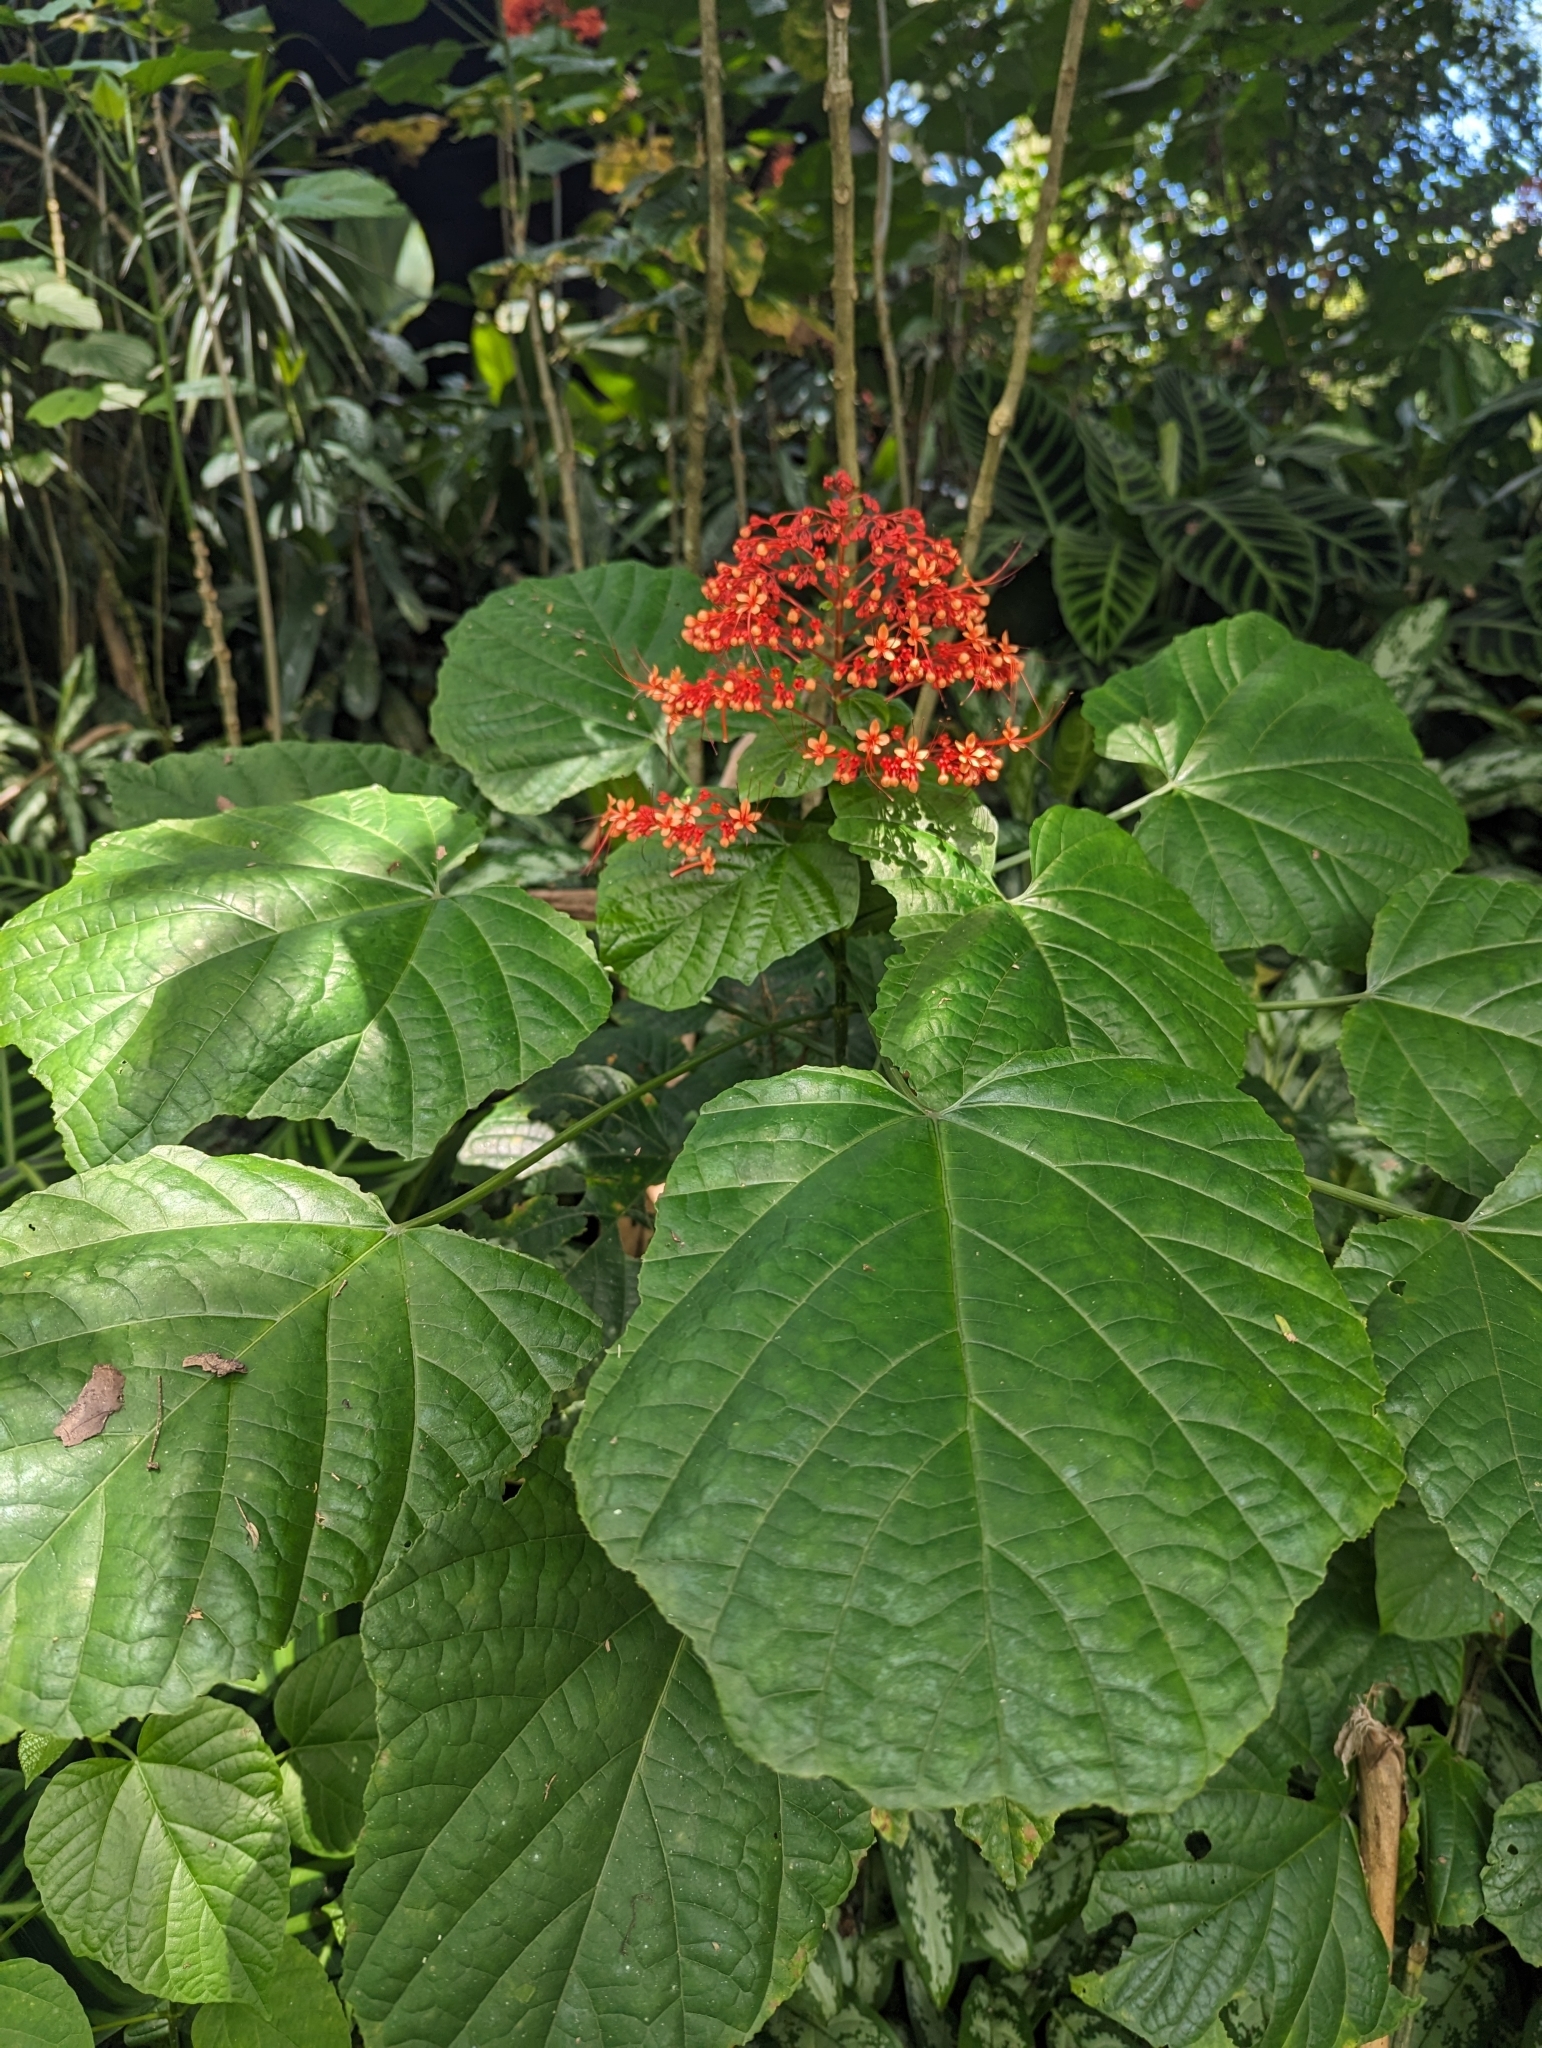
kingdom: Plantae
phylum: Tracheophyta
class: Magnoliopsida
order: Lamiales
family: Lamiaceae
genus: Clerodendrum
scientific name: Clerodendrum paniculatum
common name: Pagoda-flower
